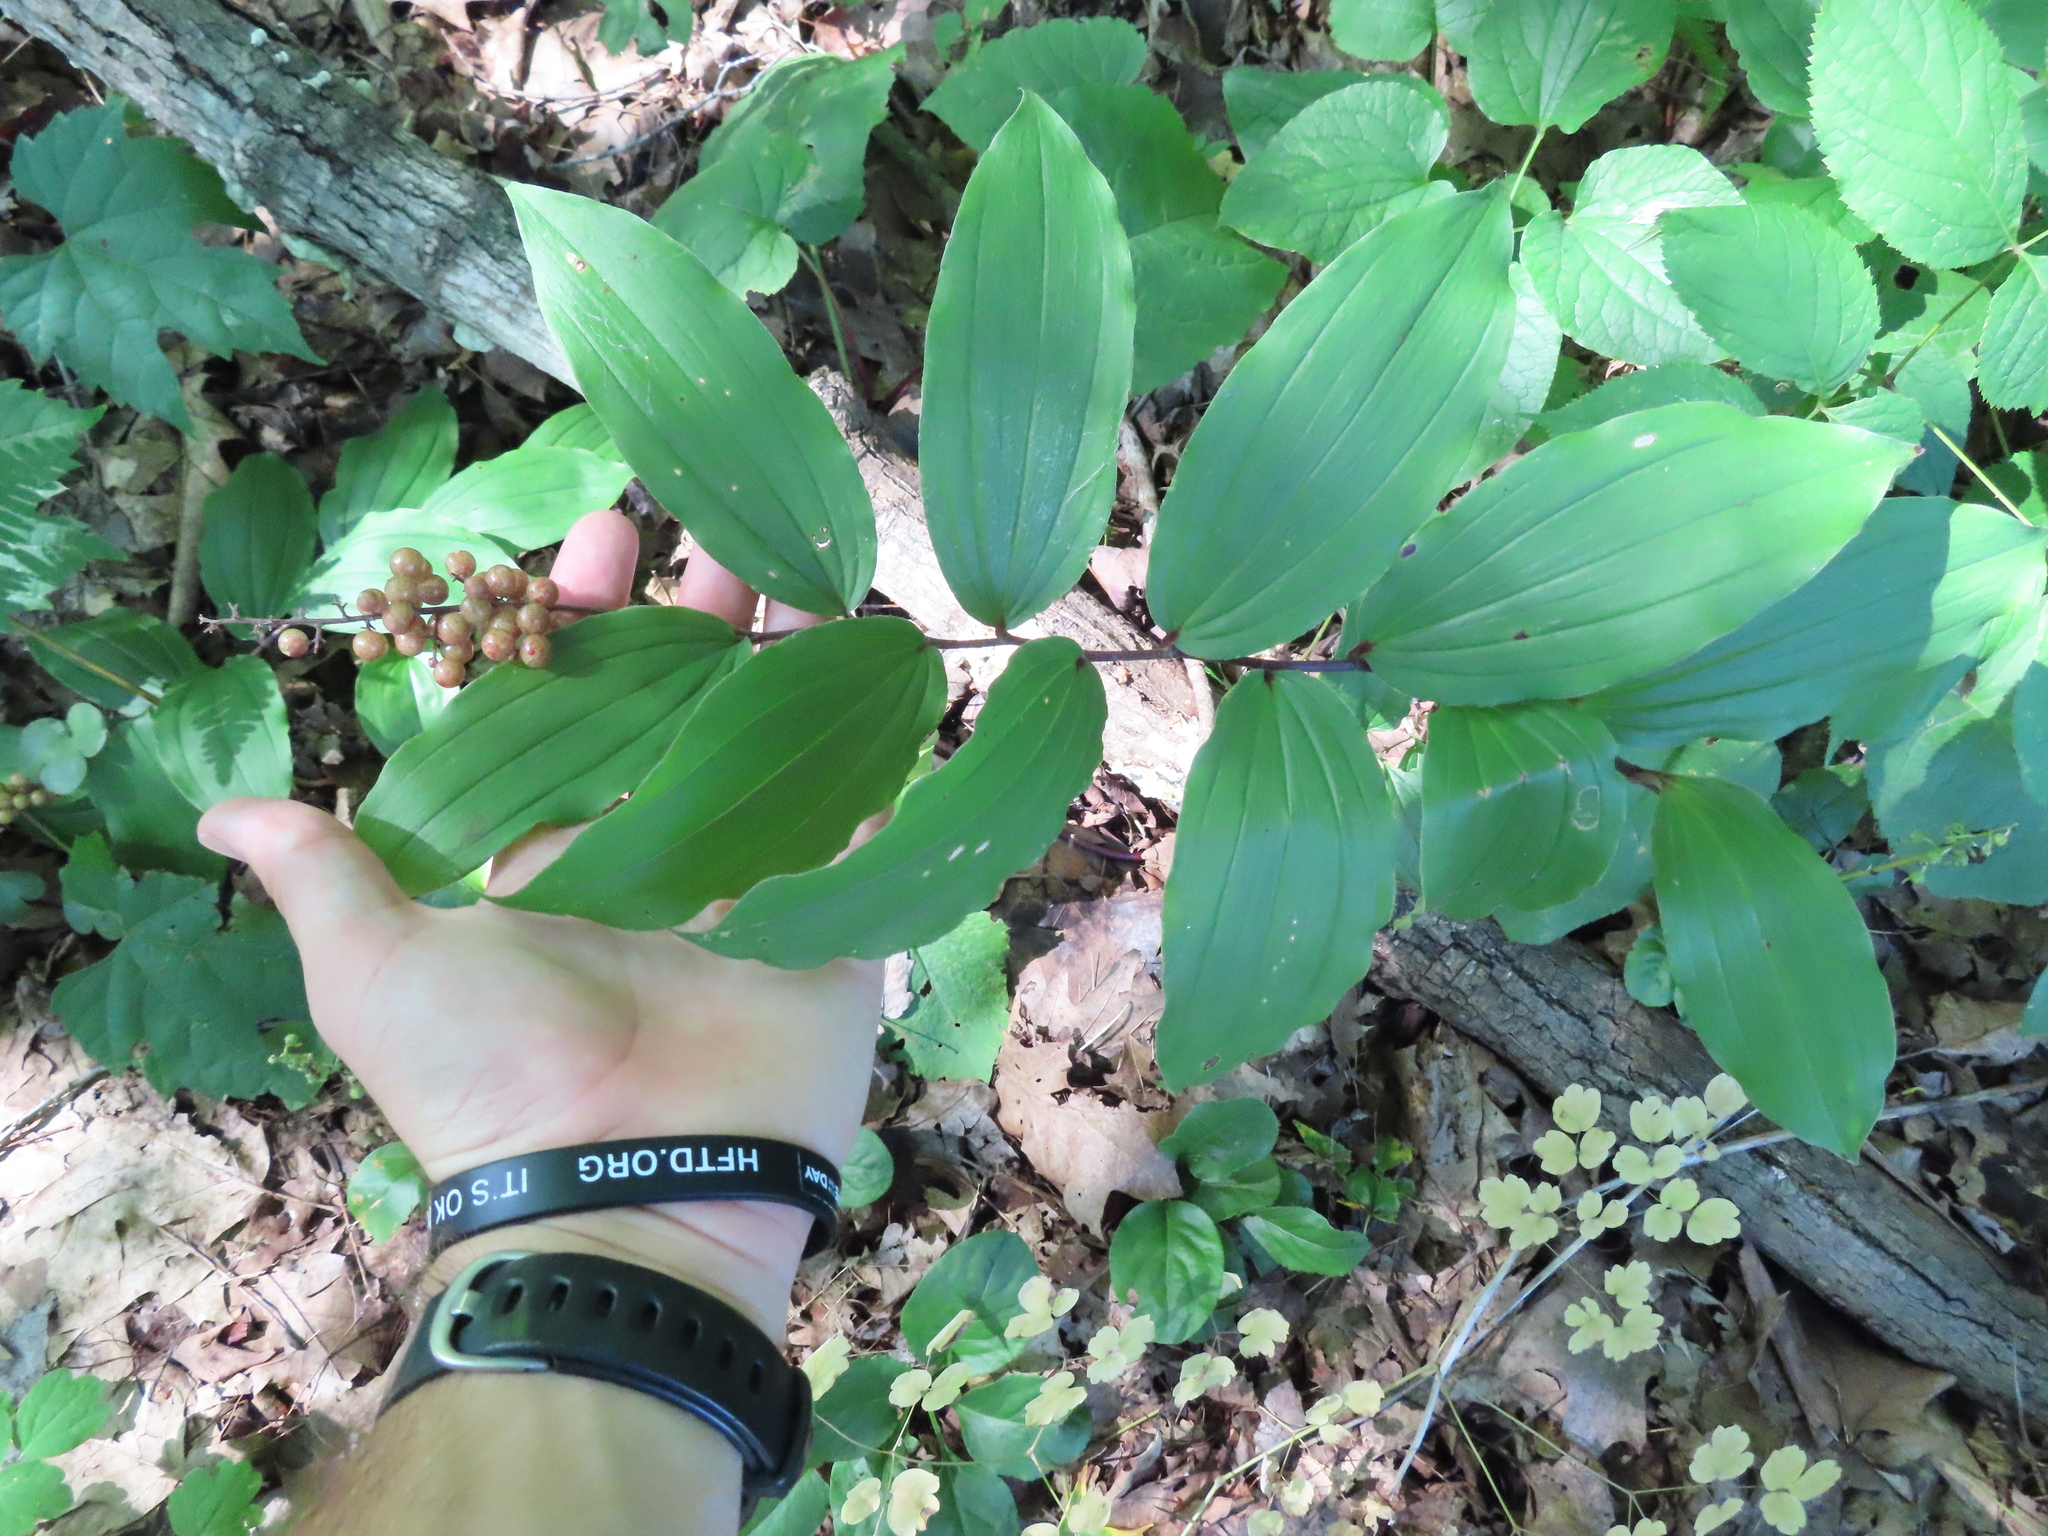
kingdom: Plantae
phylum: Tracheophyta
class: Liliopsida
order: Asparagales
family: Asparagaceae
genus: Maianthemum
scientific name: Maianthemum racemosum
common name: False spikenard
